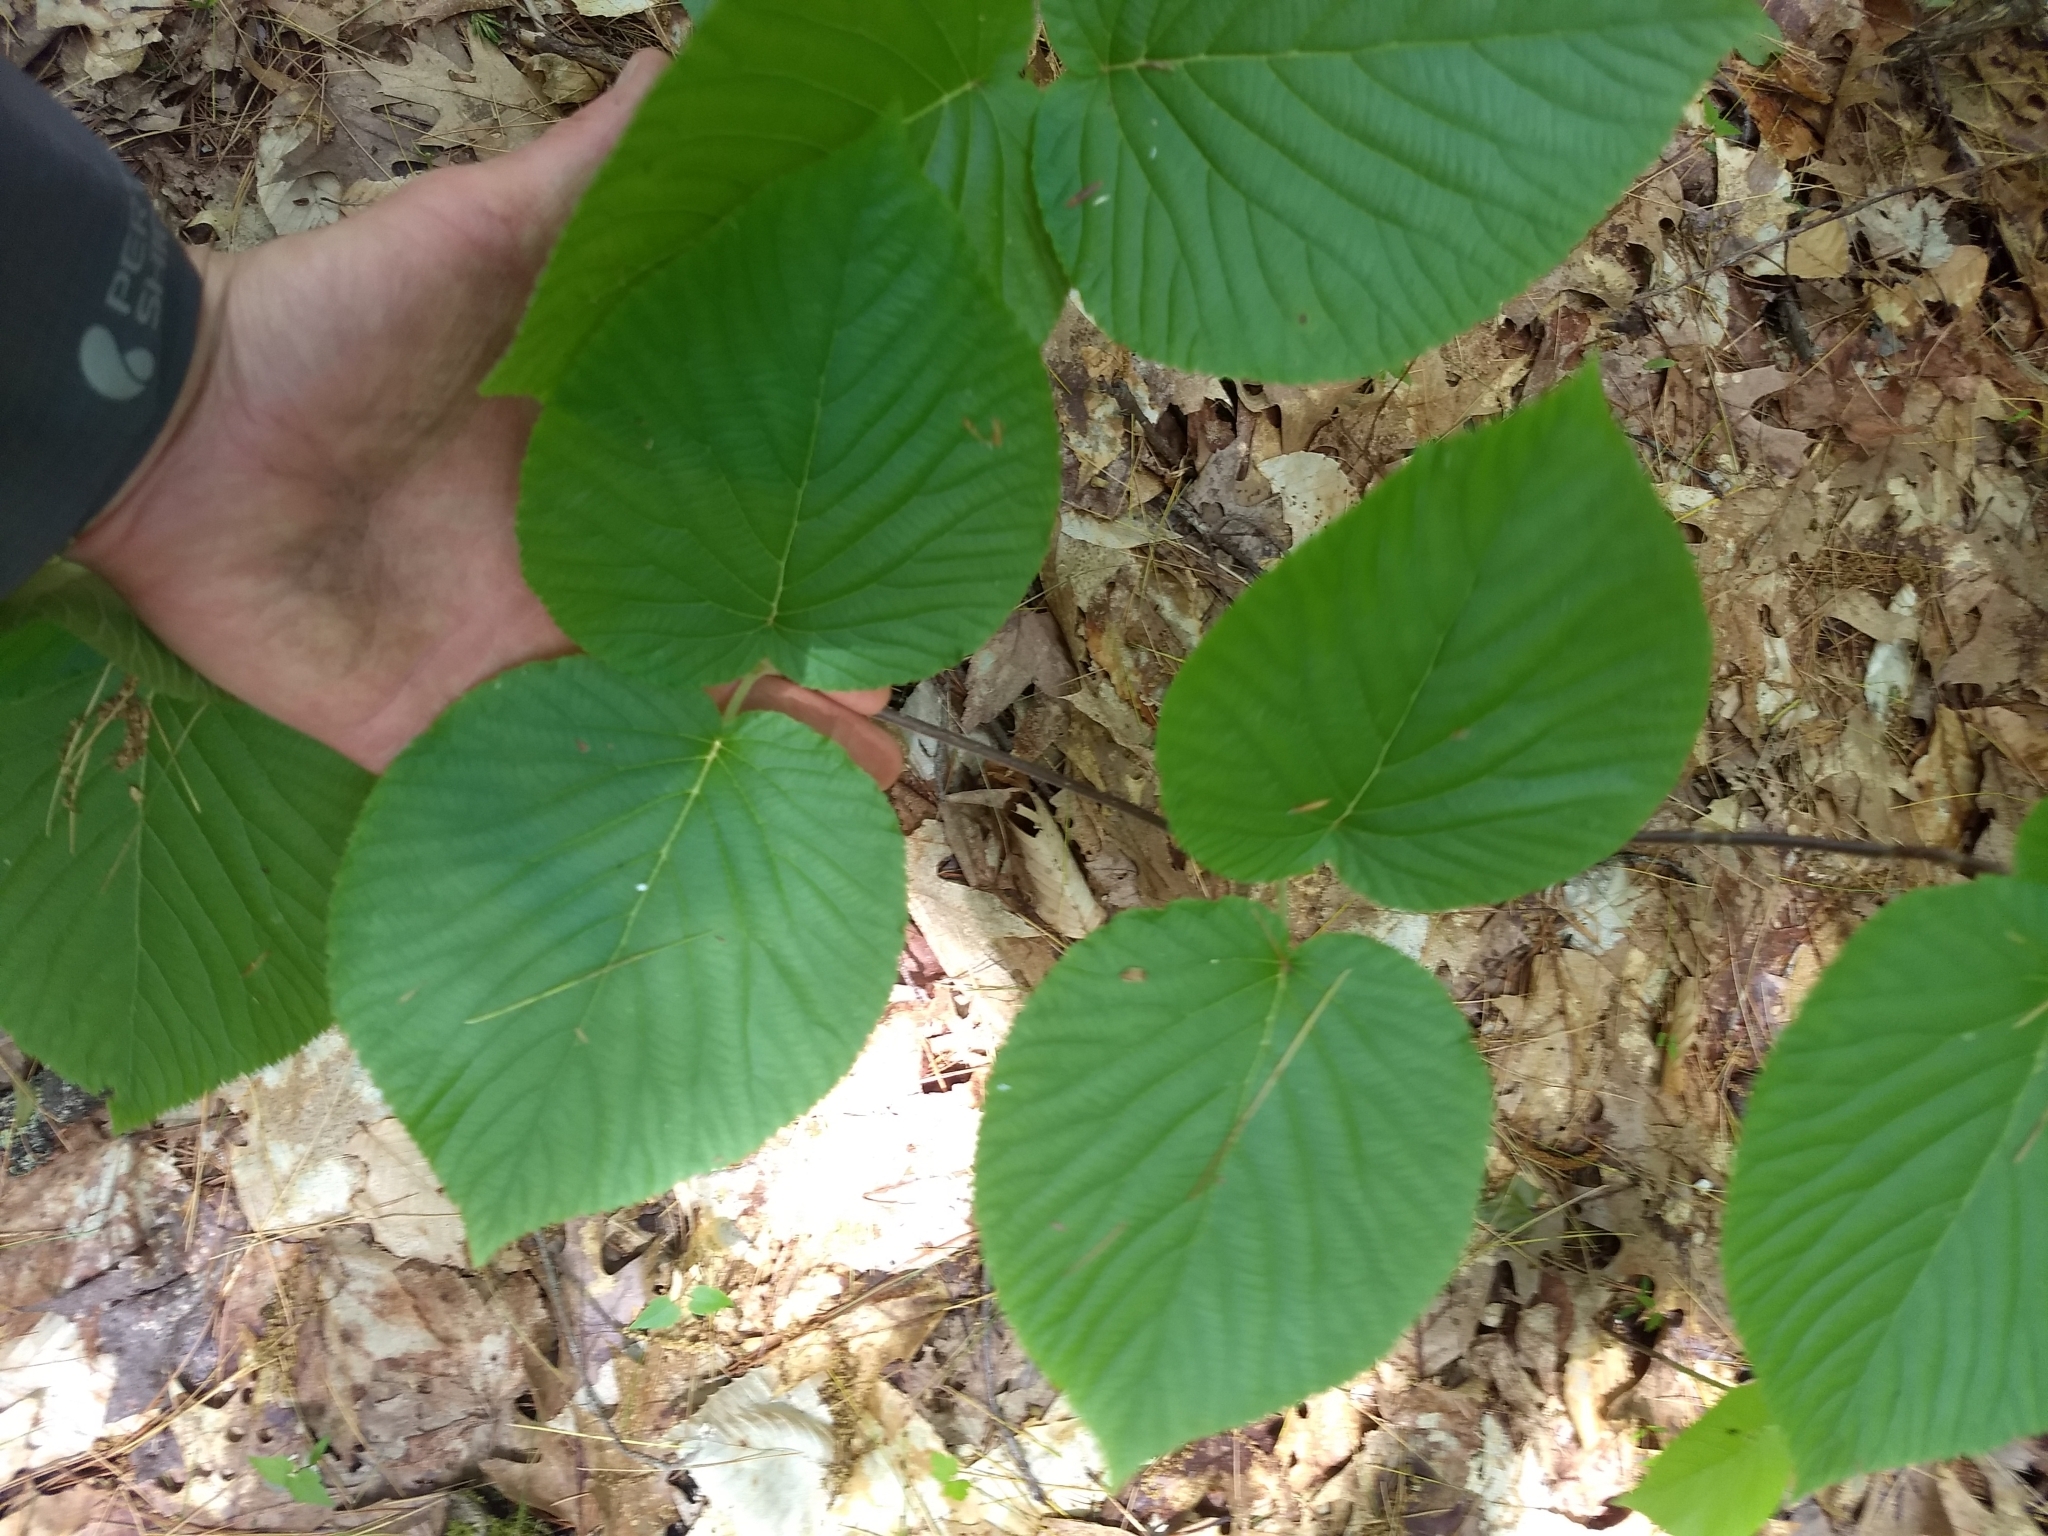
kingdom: Plantae
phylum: Tracheophyta
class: Magnoliopsida
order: Dipsacales
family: Viburnaceae
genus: Viburnum
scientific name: Viburnum lantanoides
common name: Hobblebush
